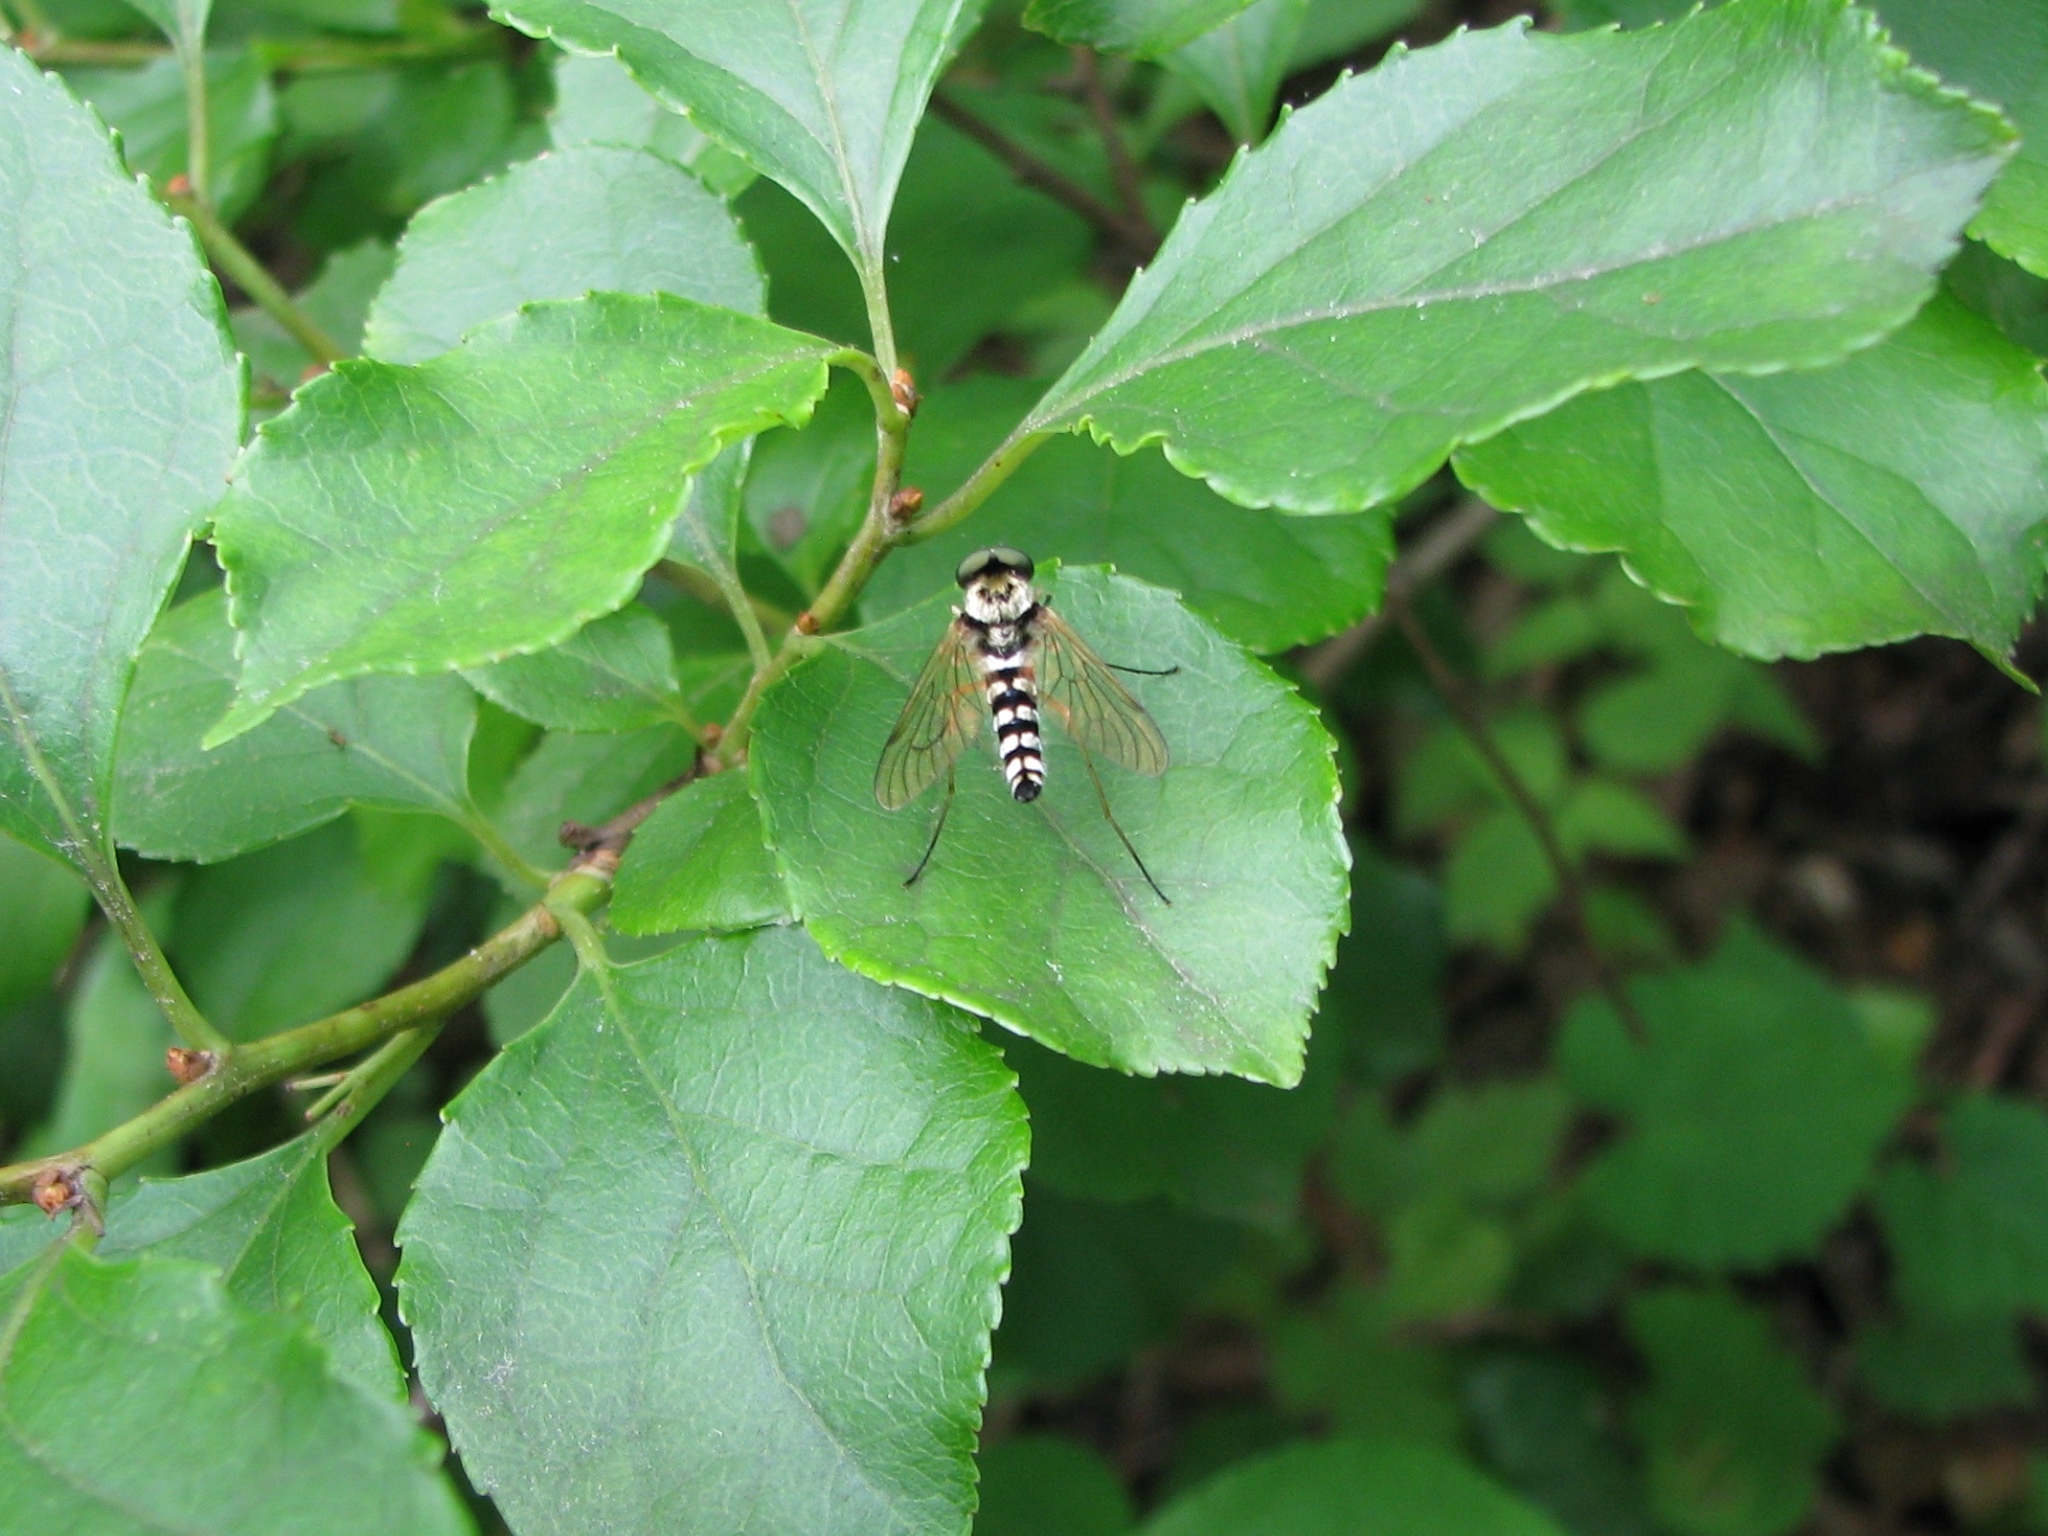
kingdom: Animalia
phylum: Arthropoda
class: Insecta
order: Diptera
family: Rhagionidae
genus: Chrysopilus
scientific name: Chrysopilus ornatus
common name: Ornate snipe fly
